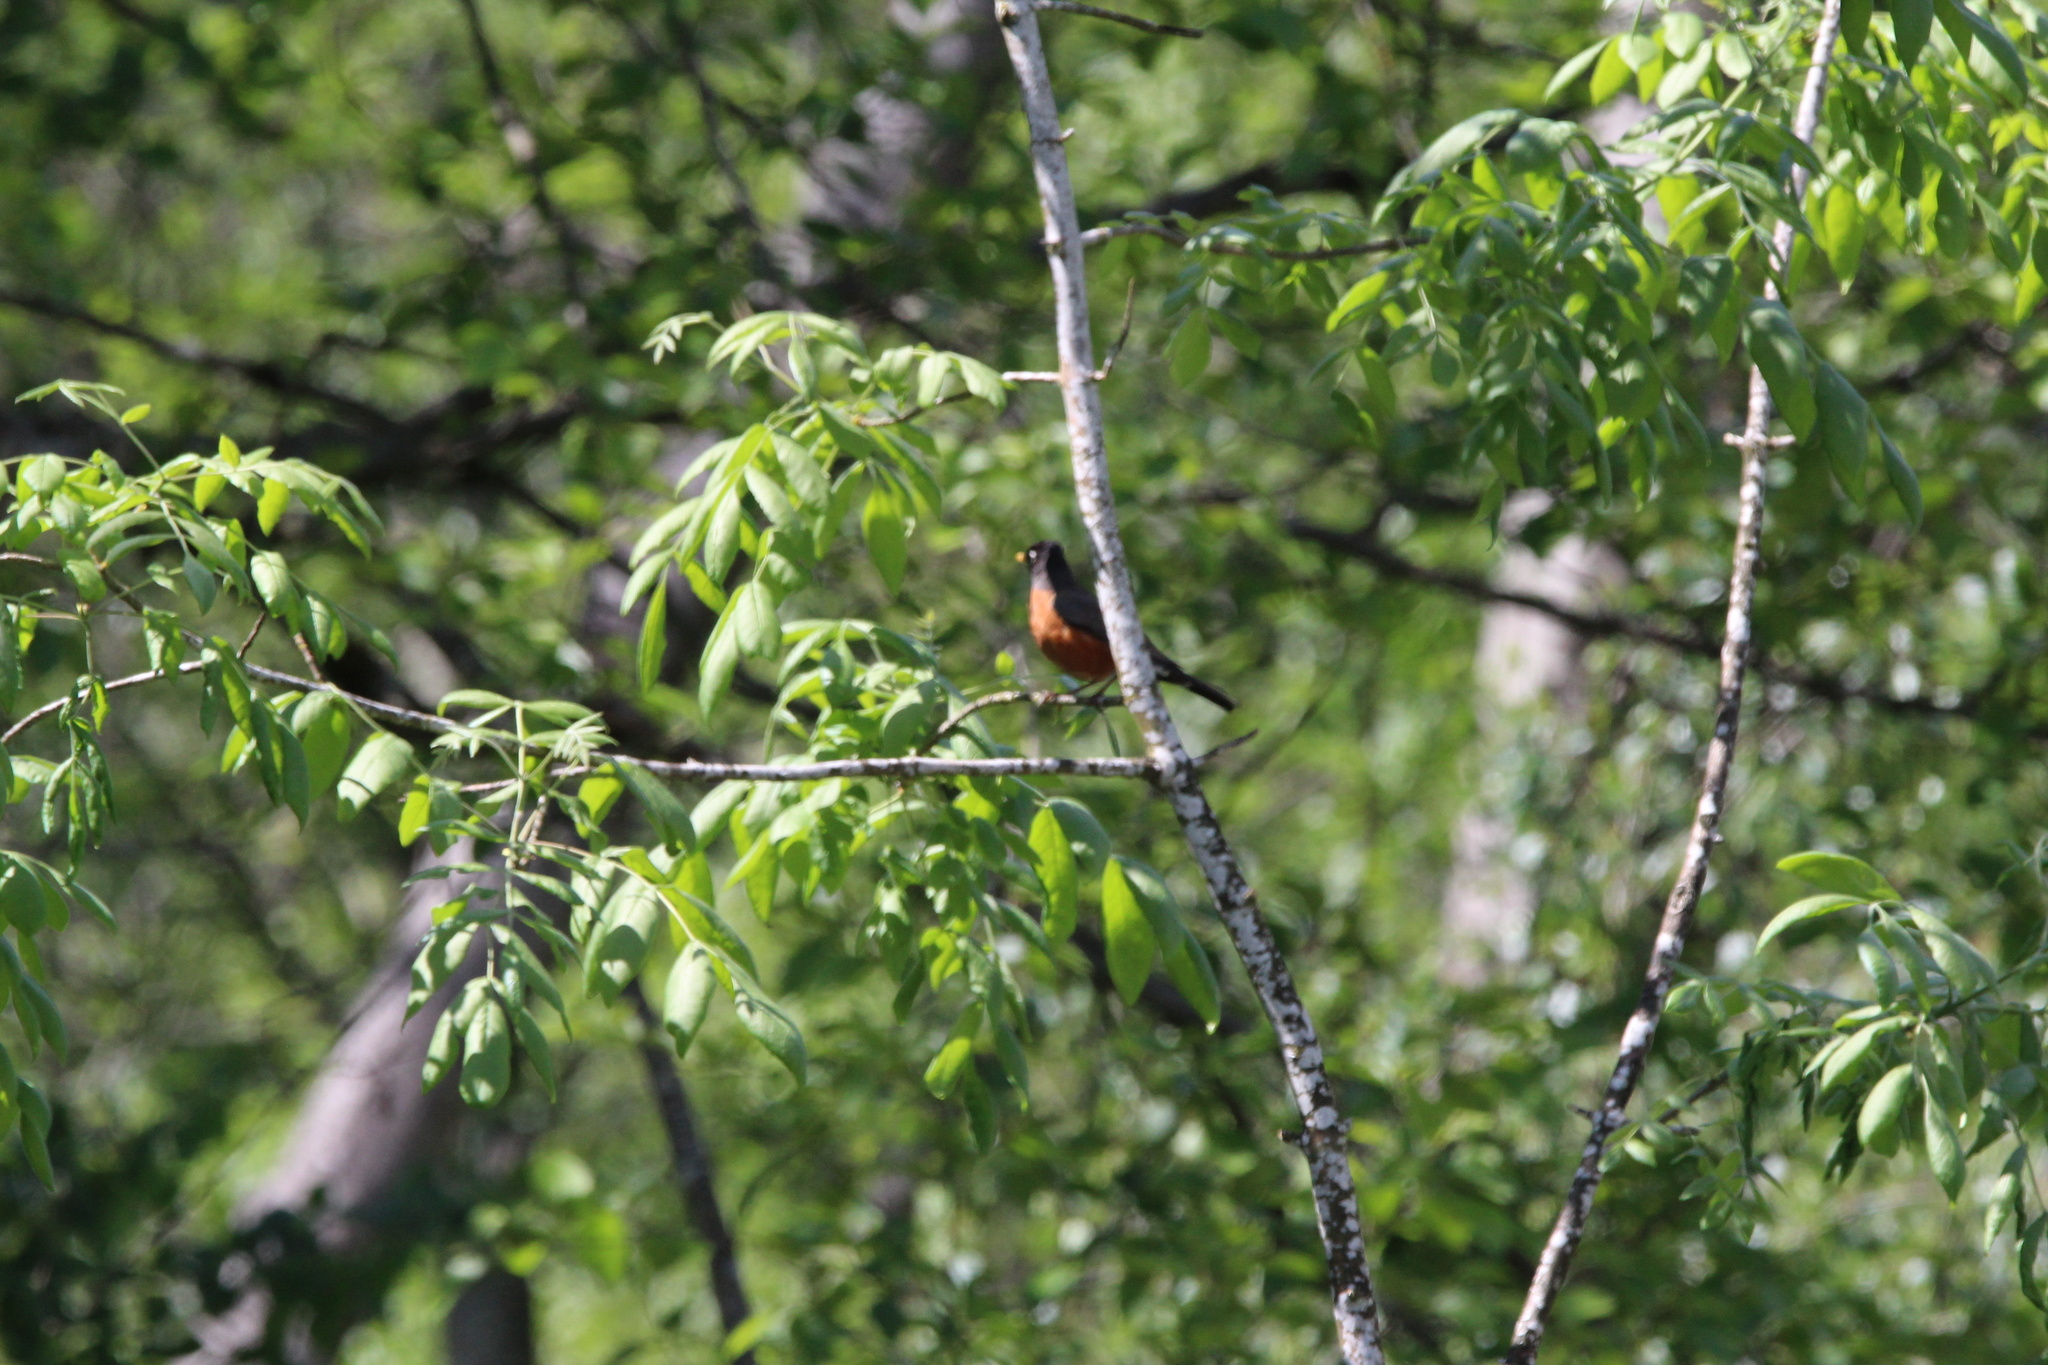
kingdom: Animalia
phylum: Chordata
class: Aves
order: Passeriformes
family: Turdidae
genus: Turdus
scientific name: Turdus migratorius
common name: American robin
